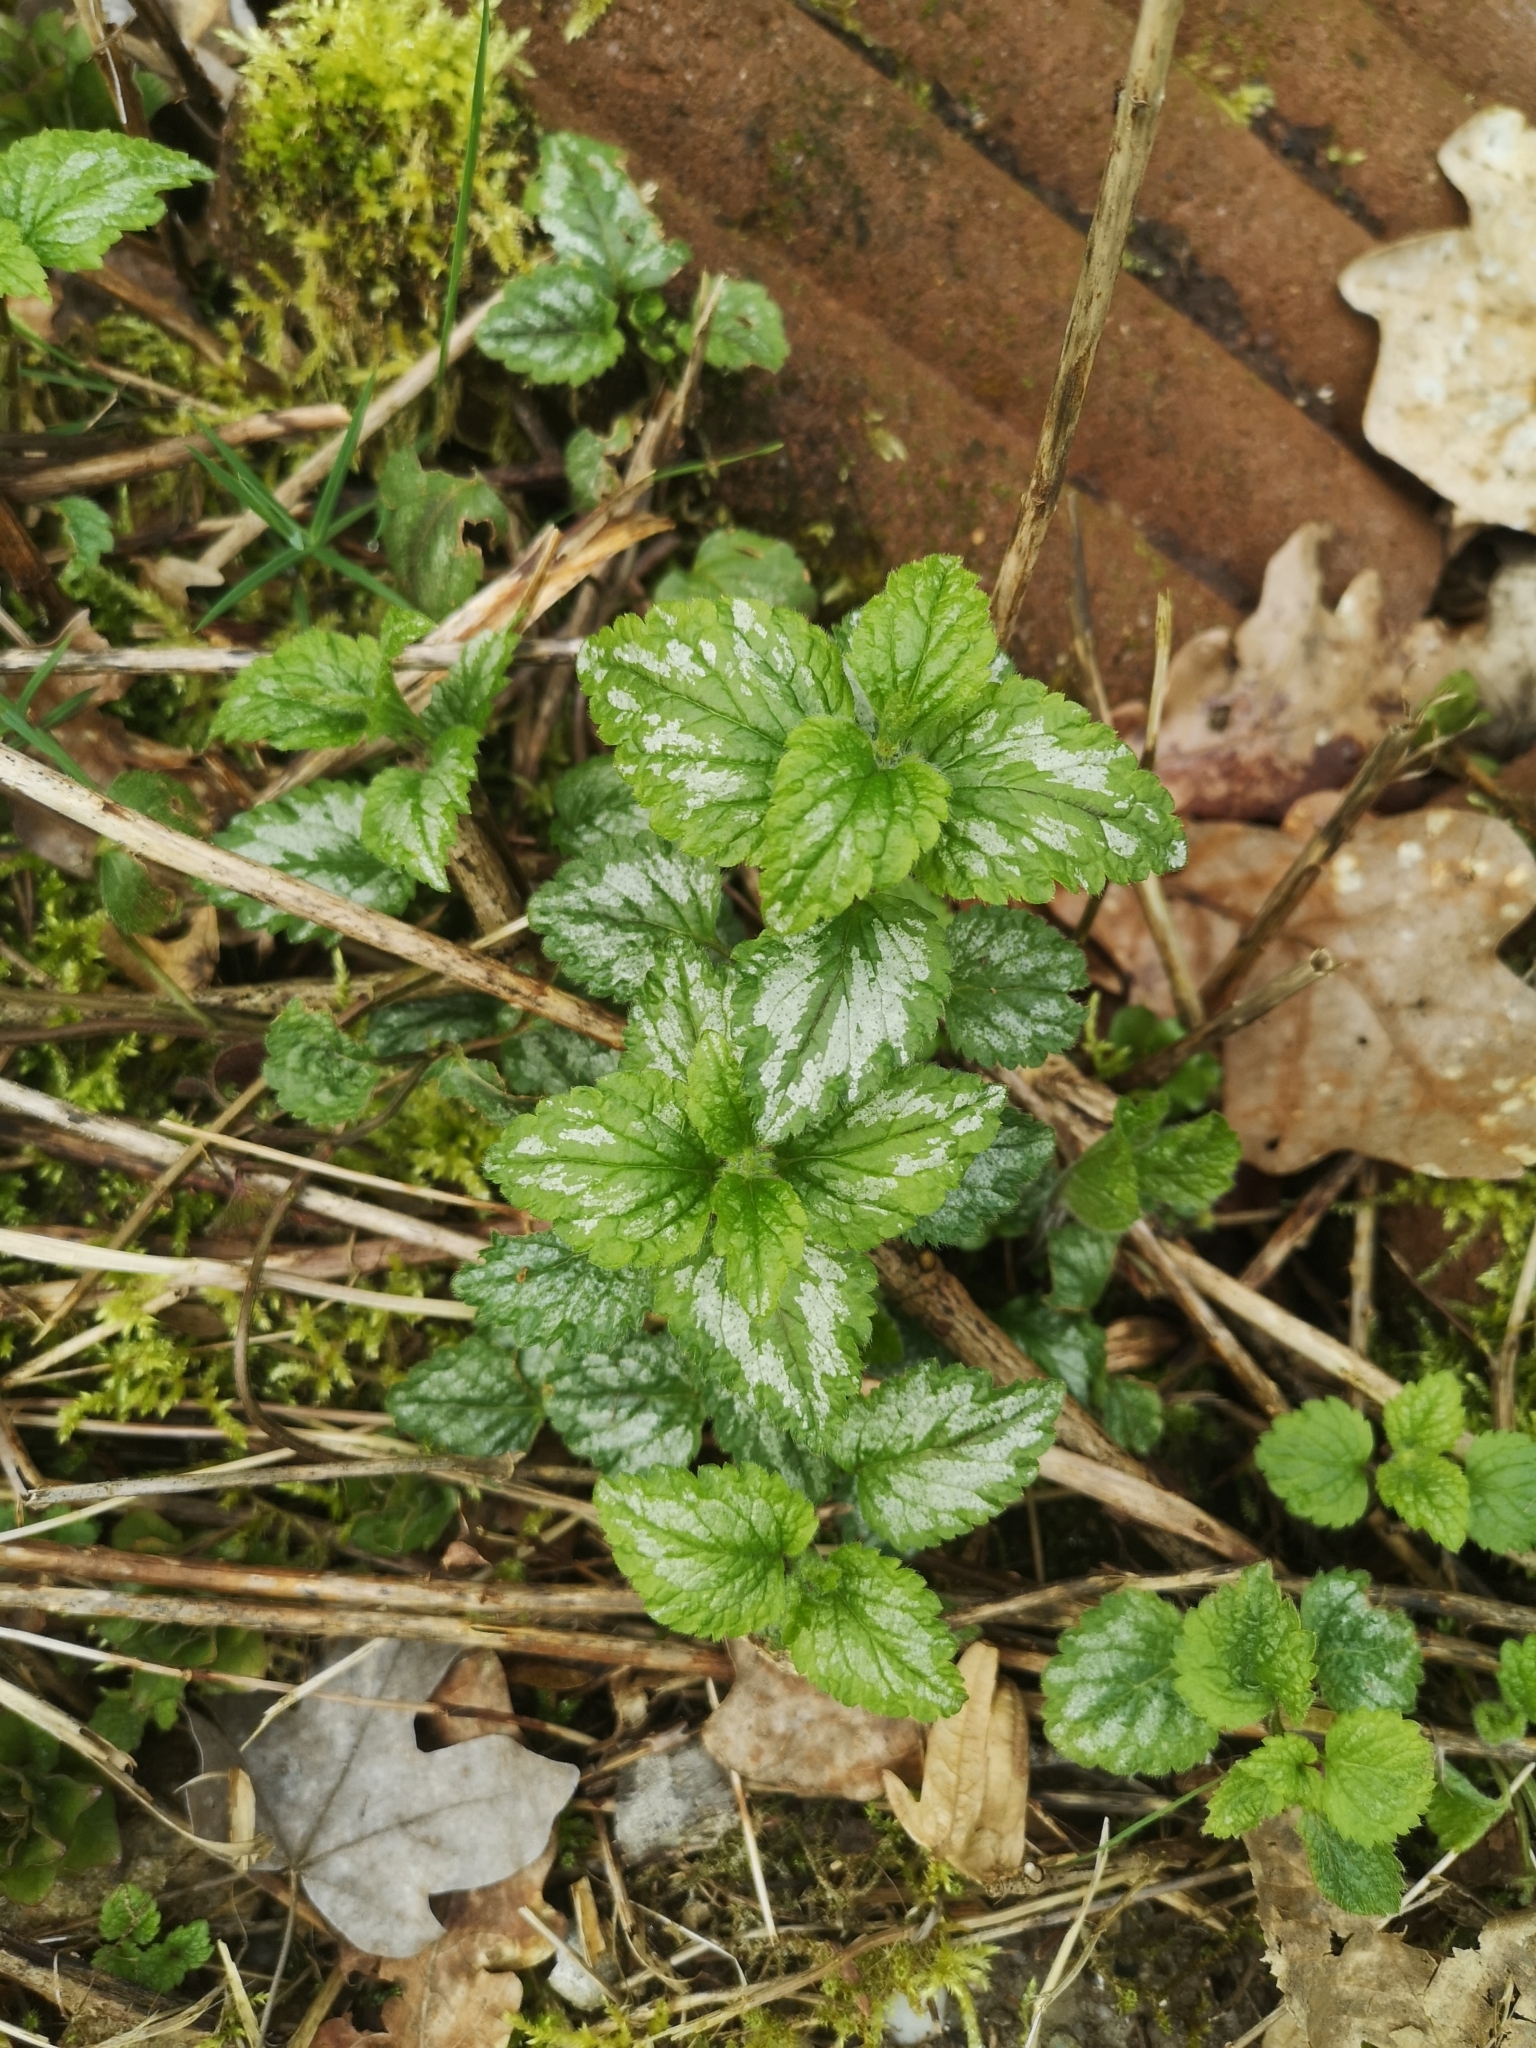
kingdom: Plantae
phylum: Tracheophyta
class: Magnoliopsida
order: Lamiales
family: Lamiaceae
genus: Lamium
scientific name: Lamium galeobdolon
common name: Yellow archangel
